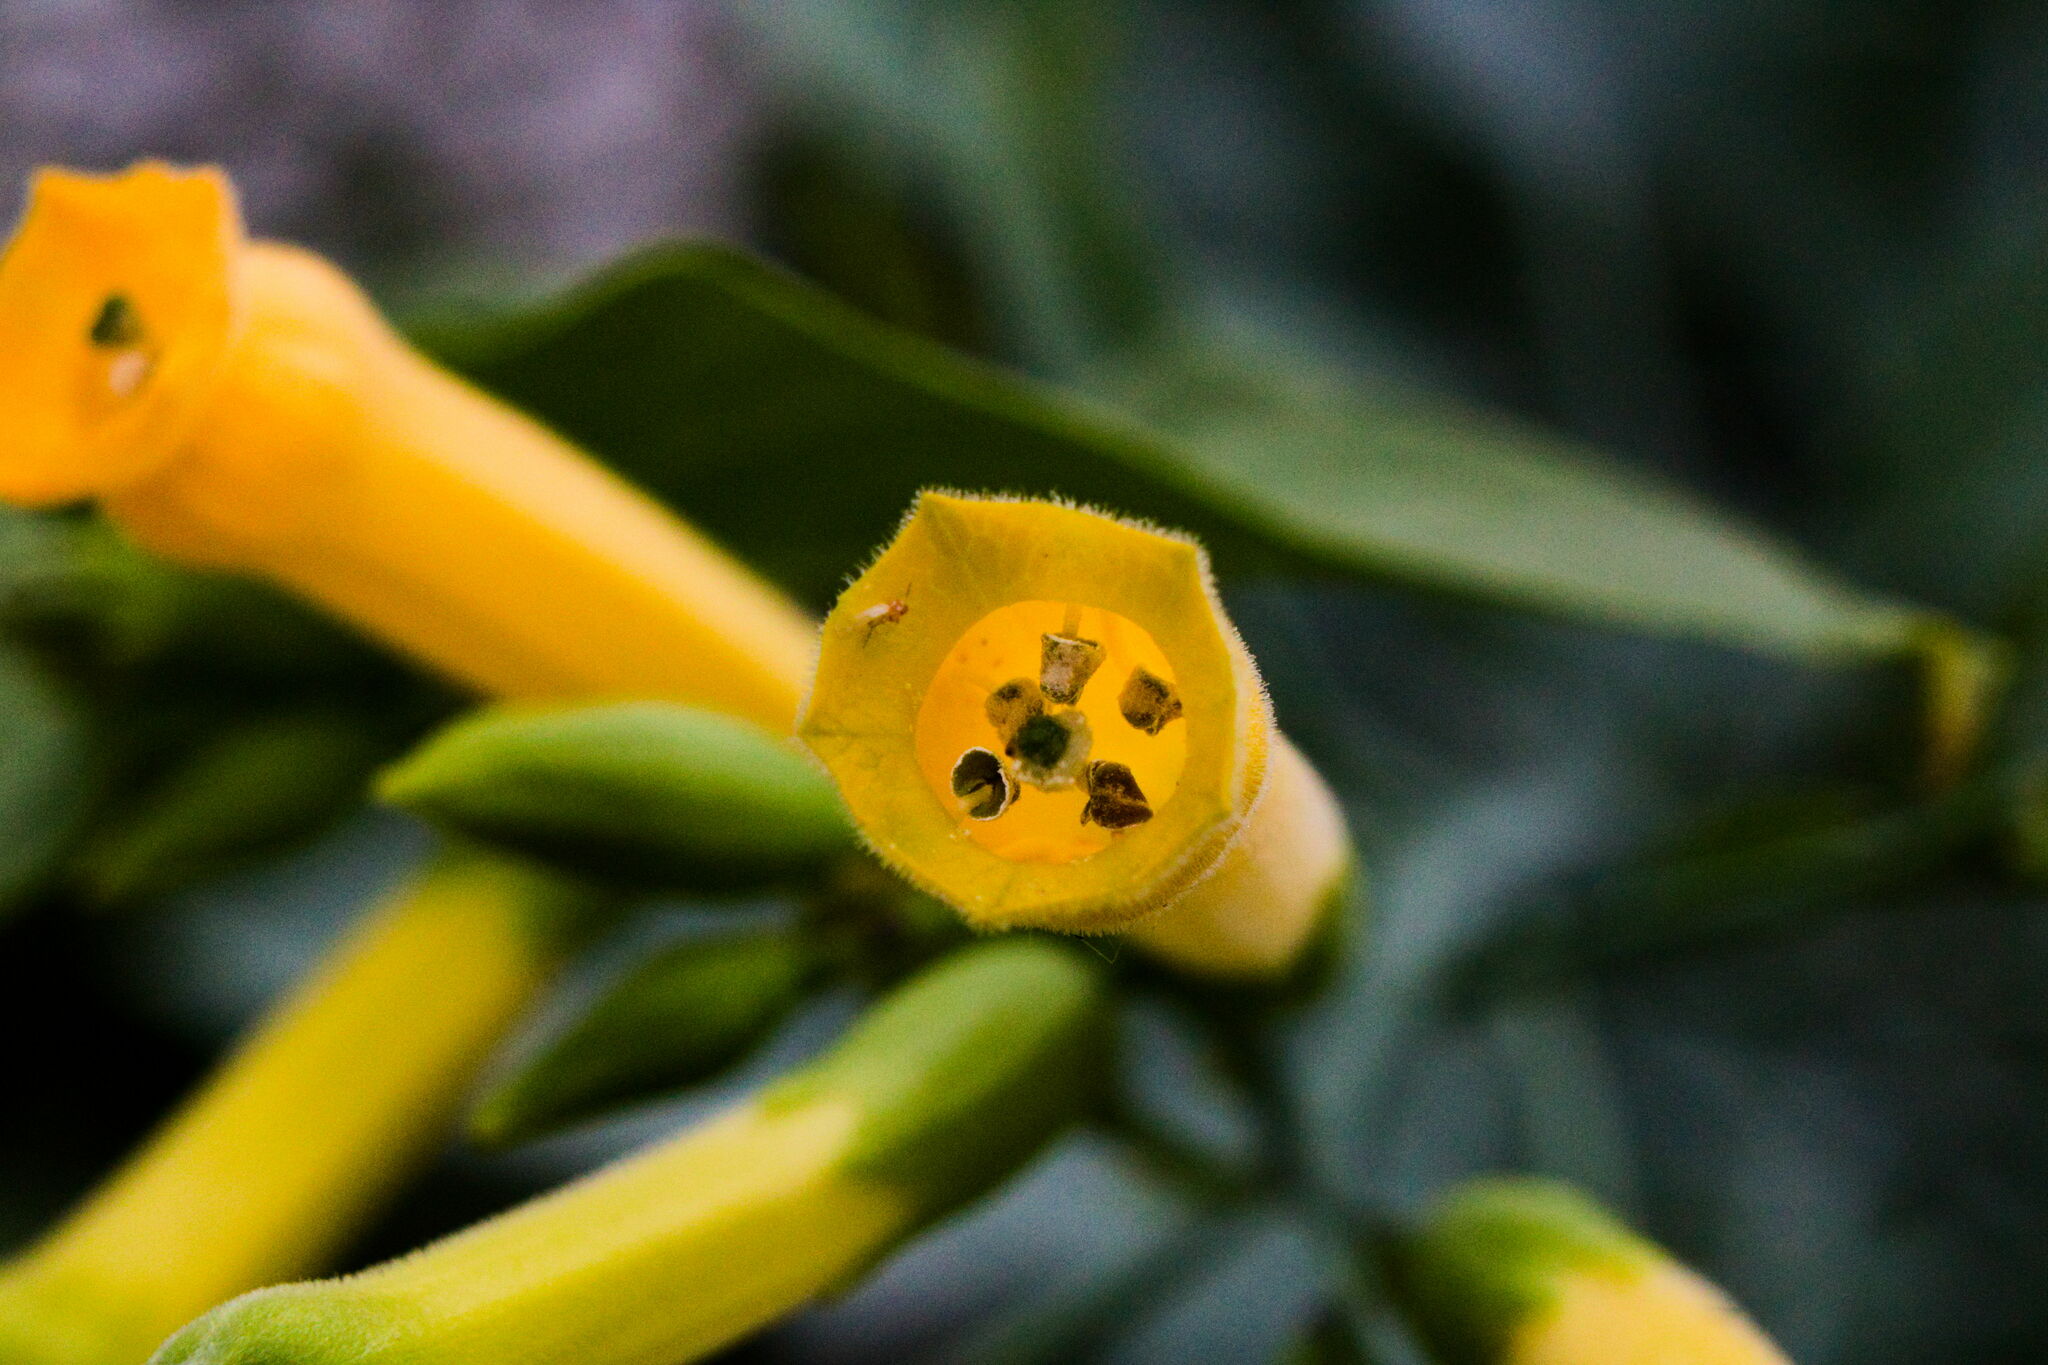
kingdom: Plantae
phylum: Tracheophyta
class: Magnoliopsida
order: Solanales
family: Solanaceae
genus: Nicotiana
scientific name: Nicotiana glauca
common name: Tree tobacco
